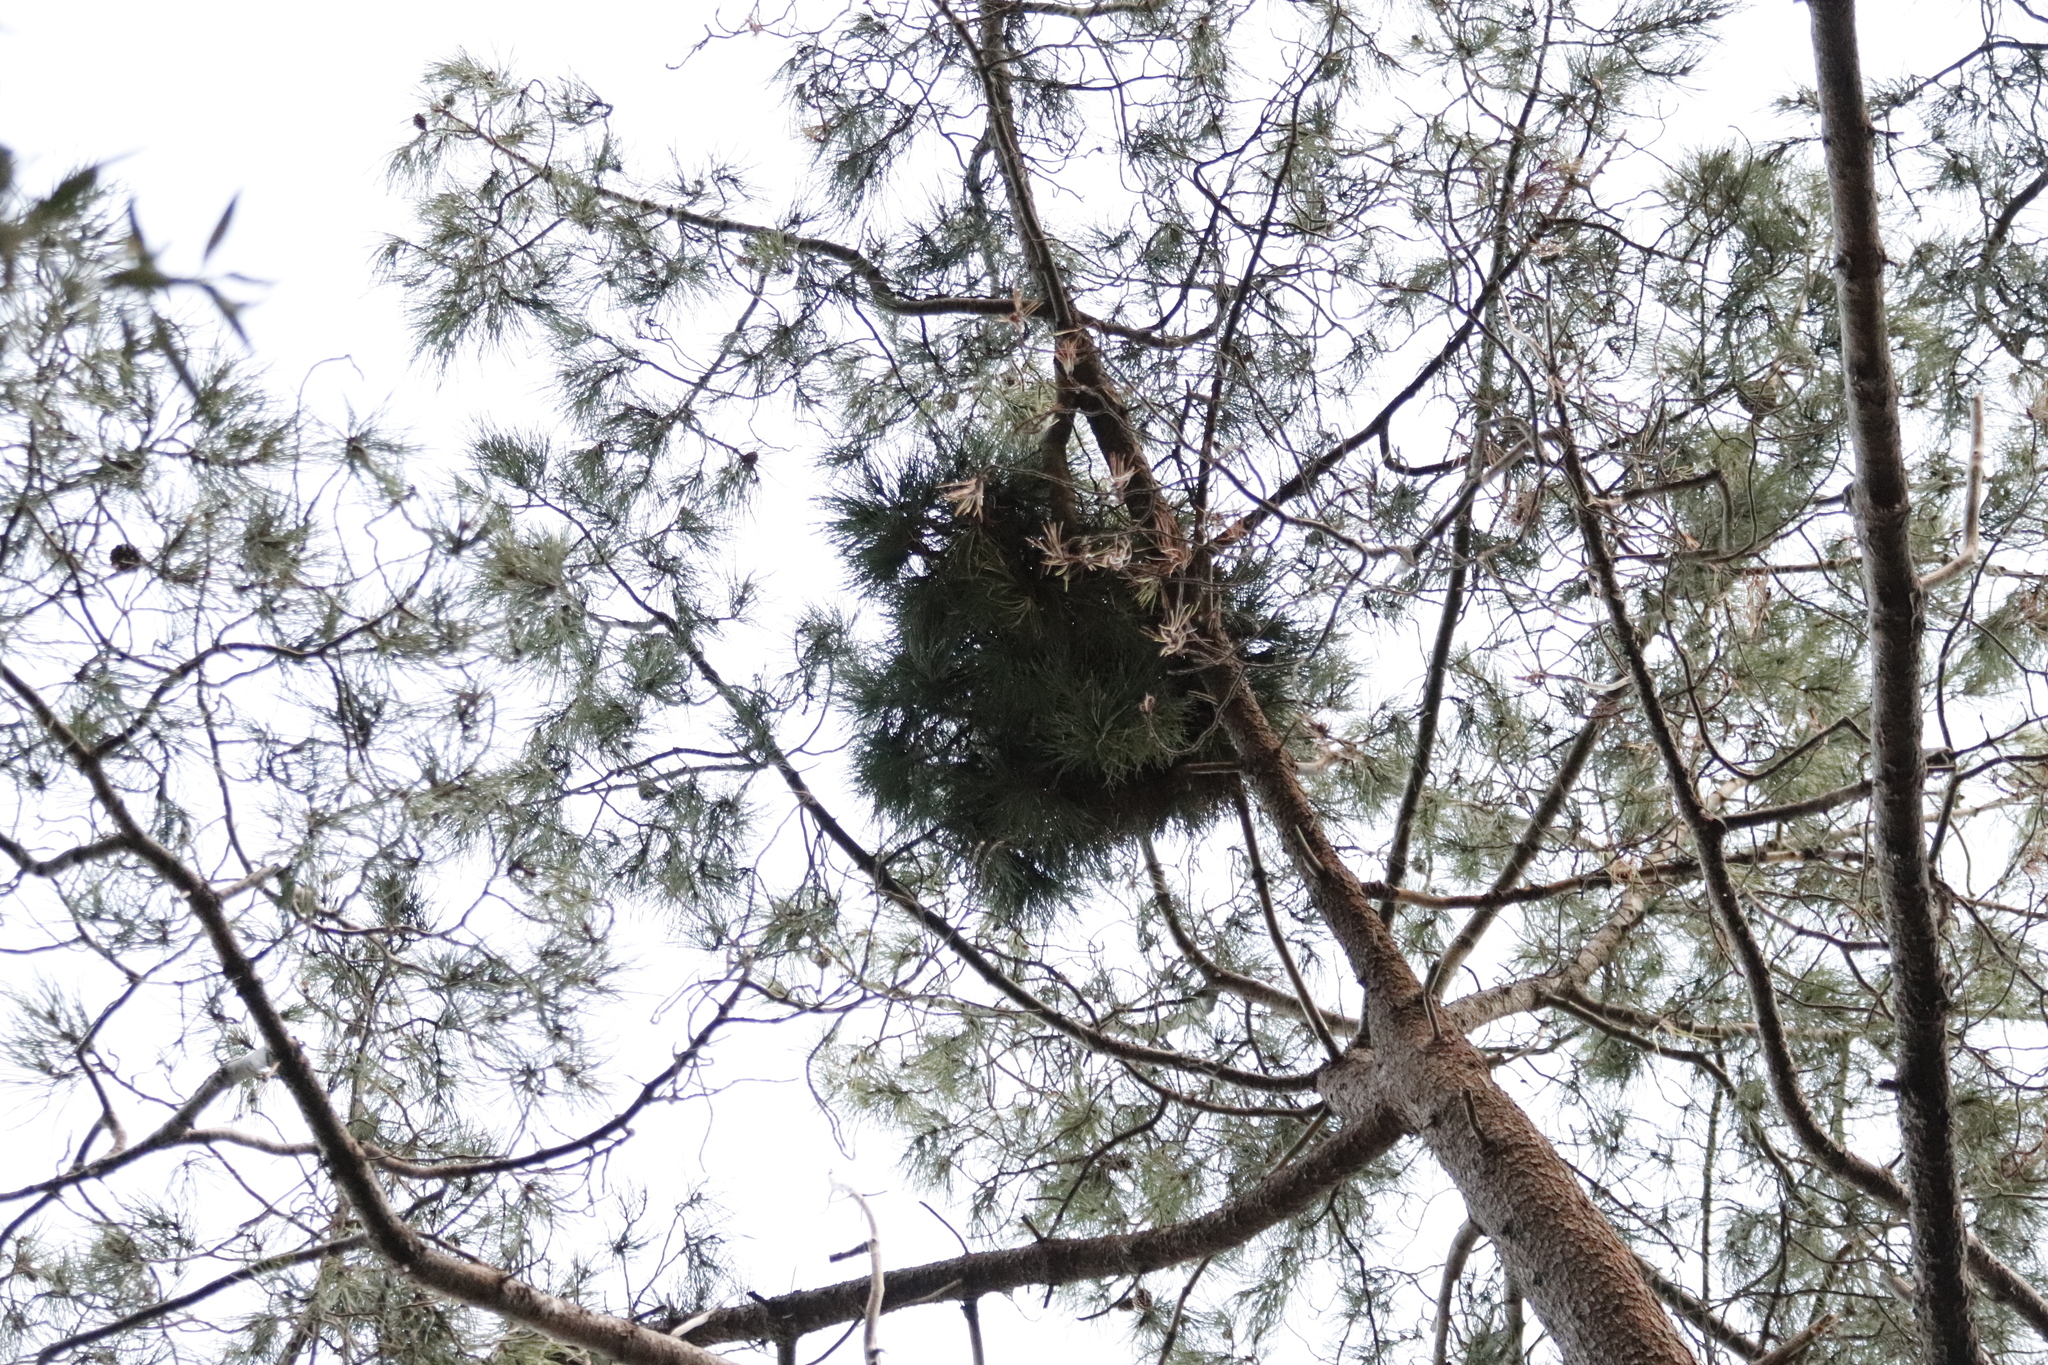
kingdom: Bacteria
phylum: Firmicutes
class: Bacilli
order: Acholeplasmatales
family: Acholeplasmataceae
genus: Phytoplasma
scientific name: Phytoplasma pini
